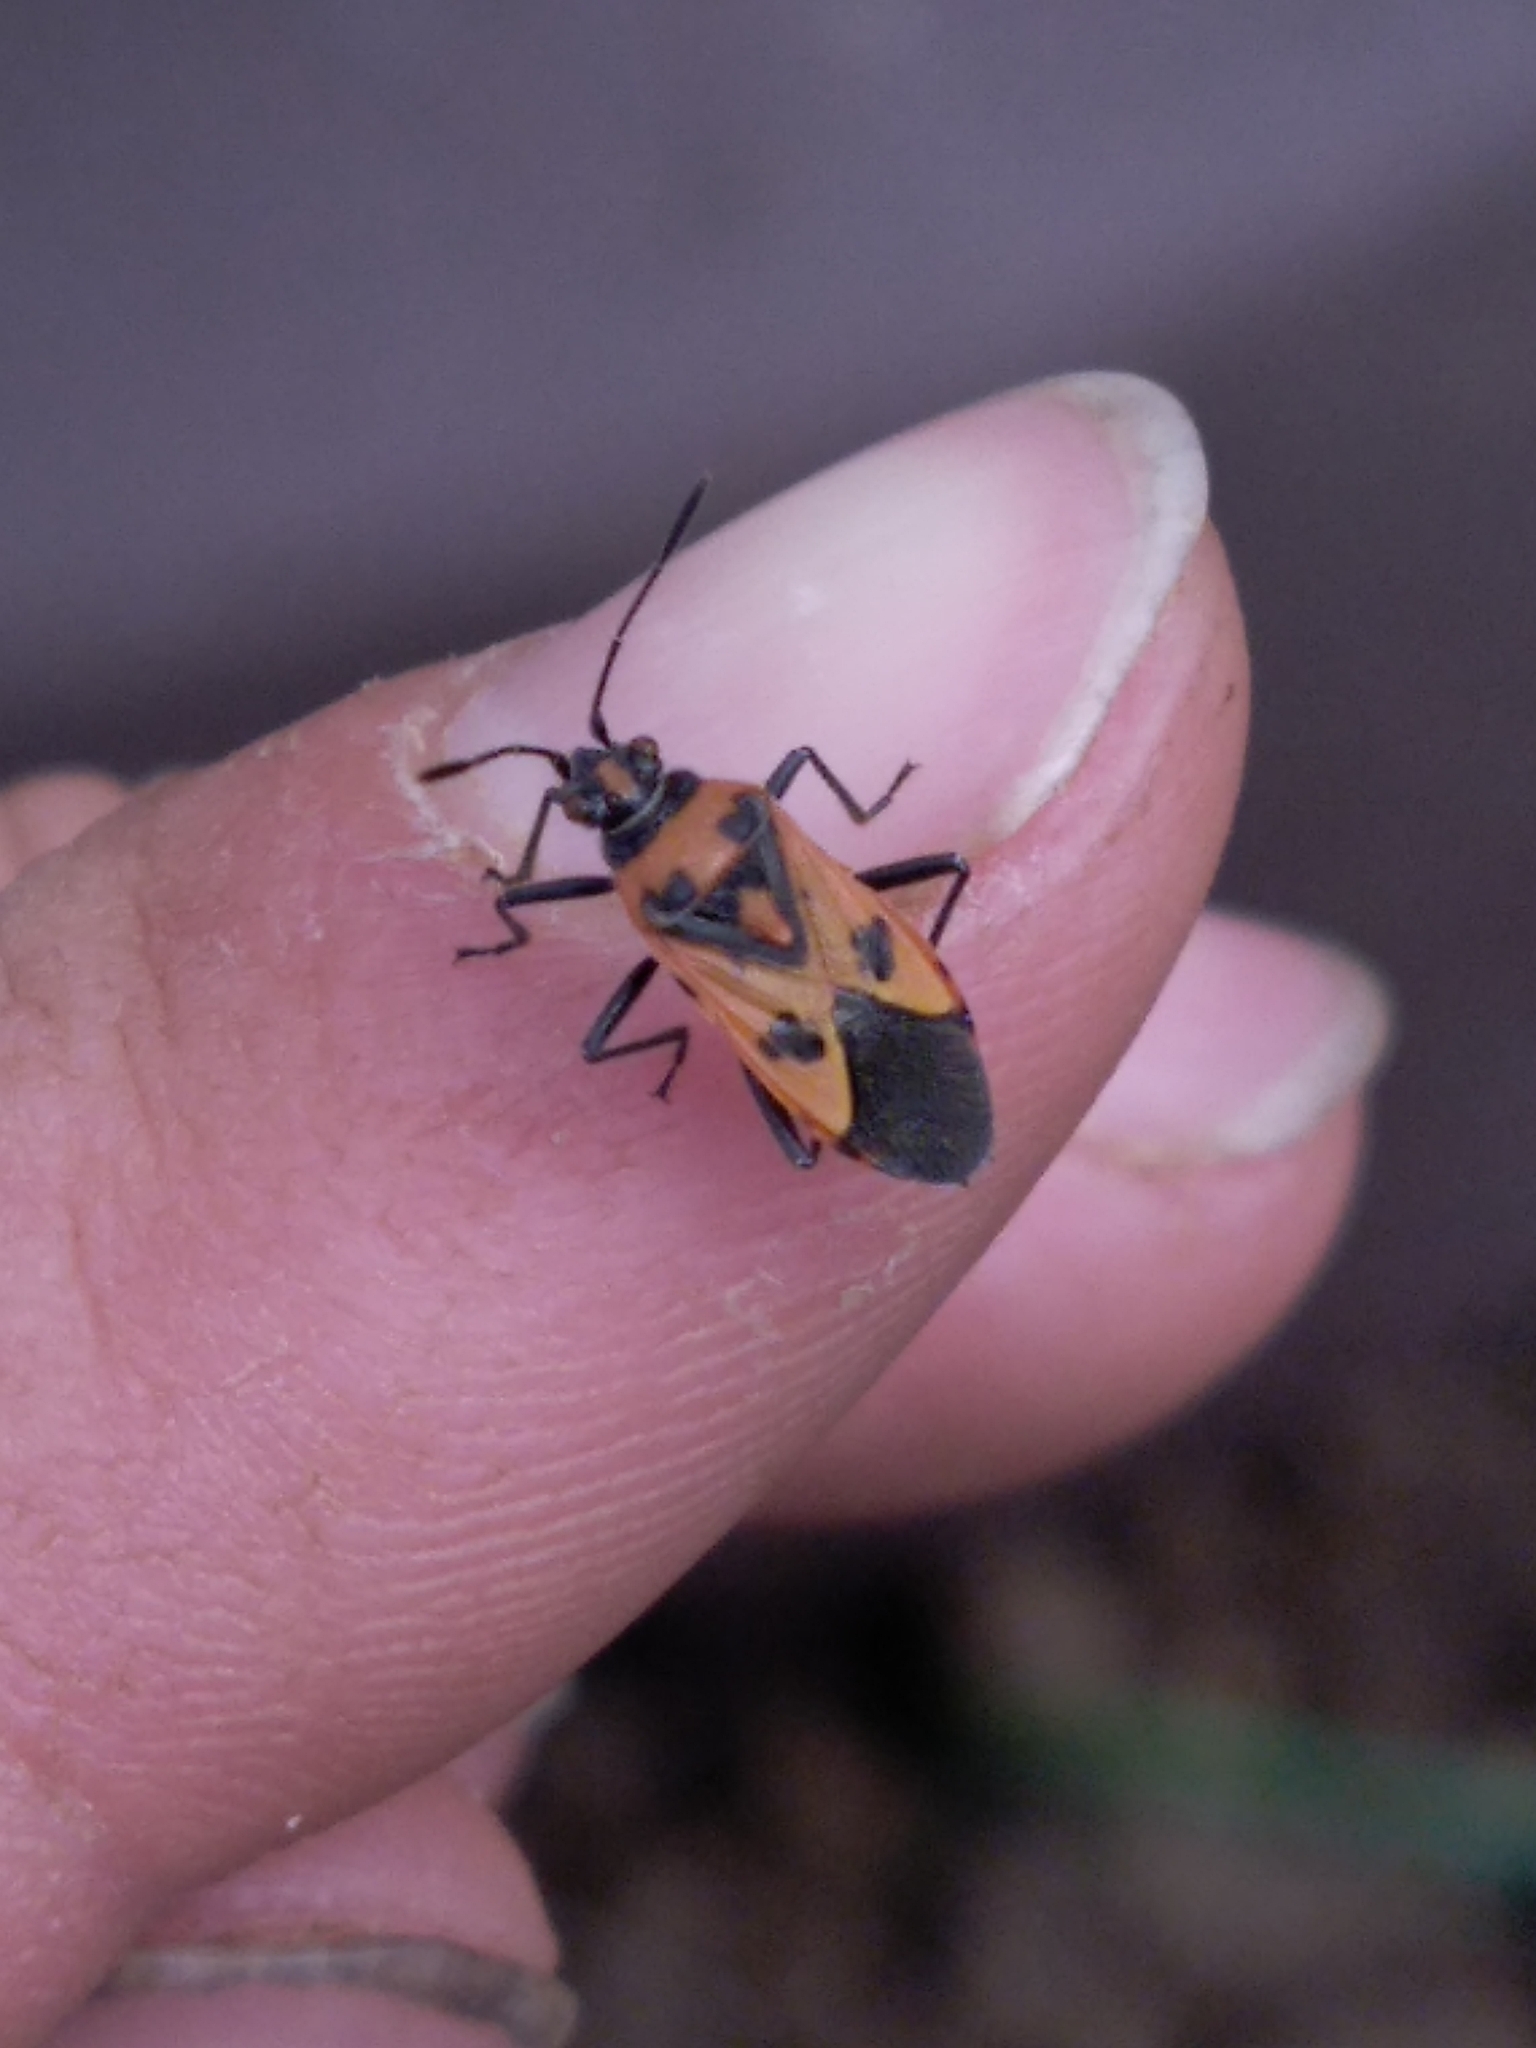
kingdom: Animalia
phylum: Arthropoda
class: Insecta
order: Hemiptera
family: Rhopalidae
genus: Corizus
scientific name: Corizus hyoscyami
